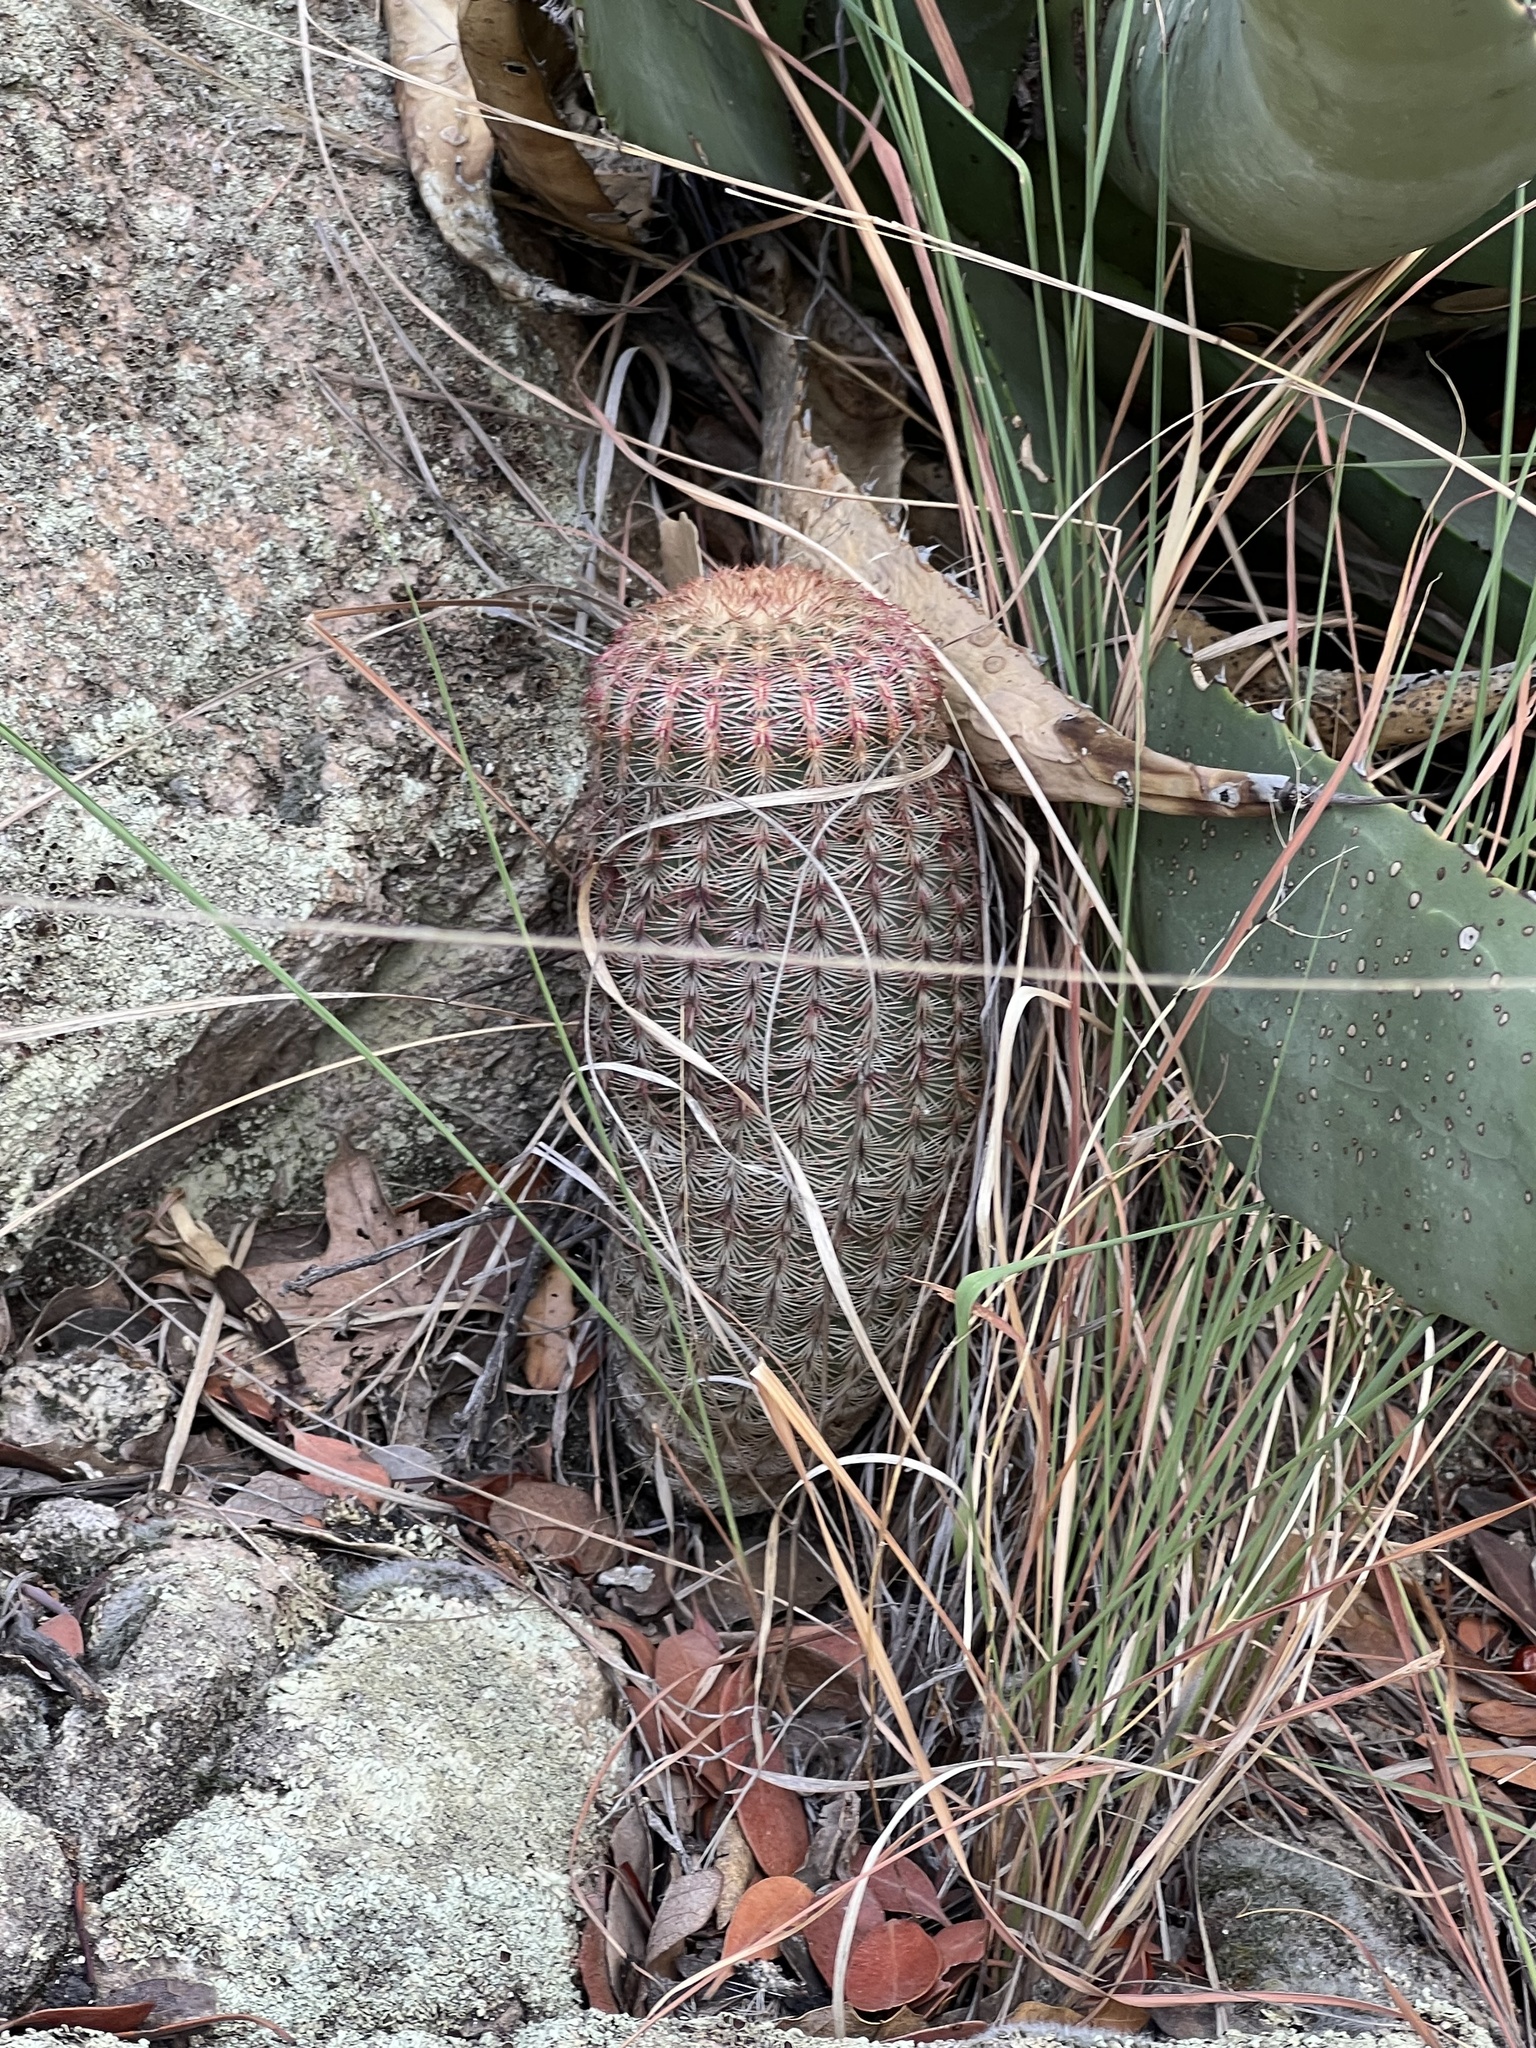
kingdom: Plantae
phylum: Tracheophyta
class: Magnoliopsida
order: Caryophyllales
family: Cactaceae
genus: Echinocereus
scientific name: Echinocereus rigidissimus
